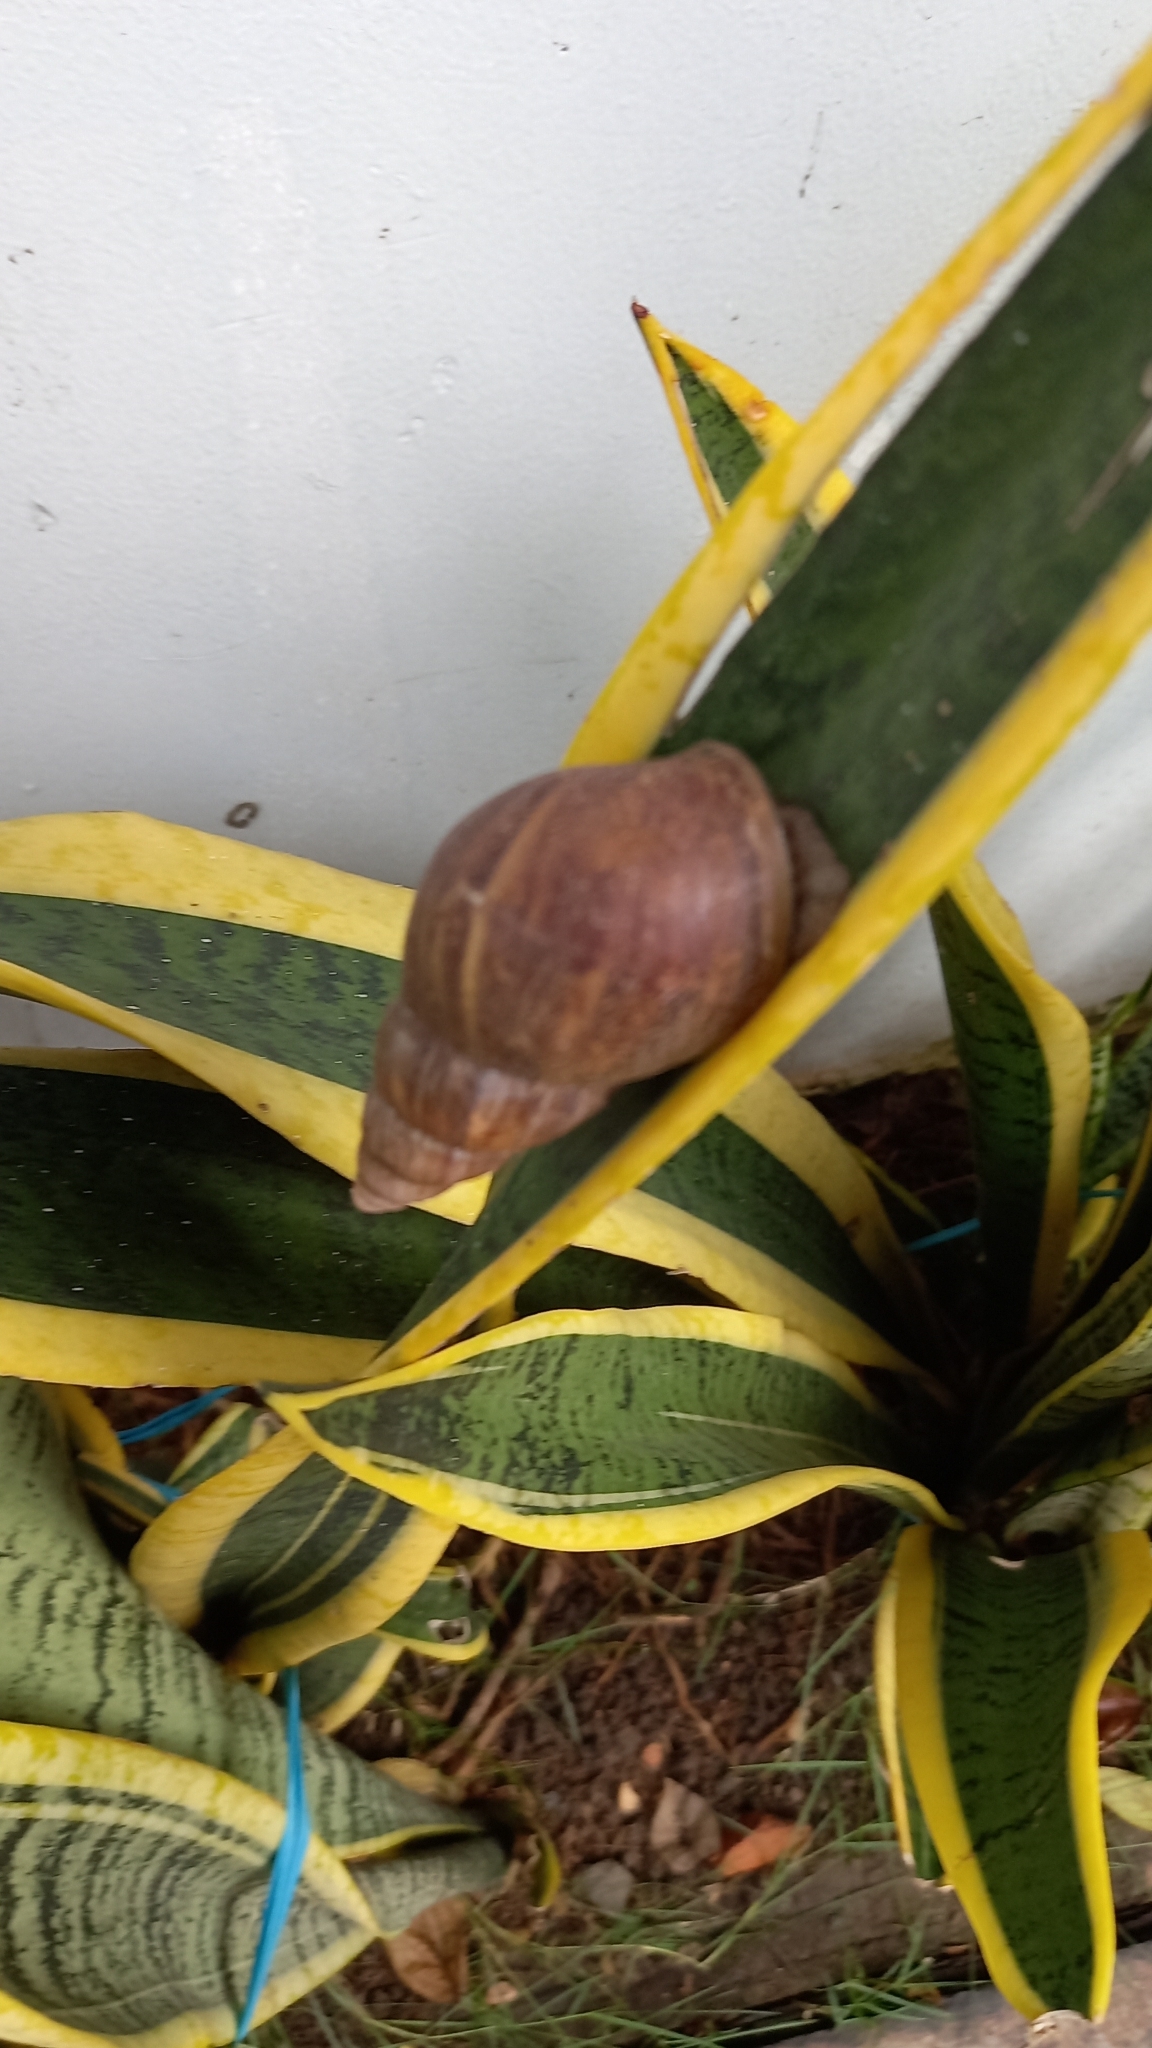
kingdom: Animalia
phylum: Mollusca
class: Gastropoda
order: Stylommatophora
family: Achatinidae
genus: Lissachatina
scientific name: Lissachatina fulica
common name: Giant african snail
